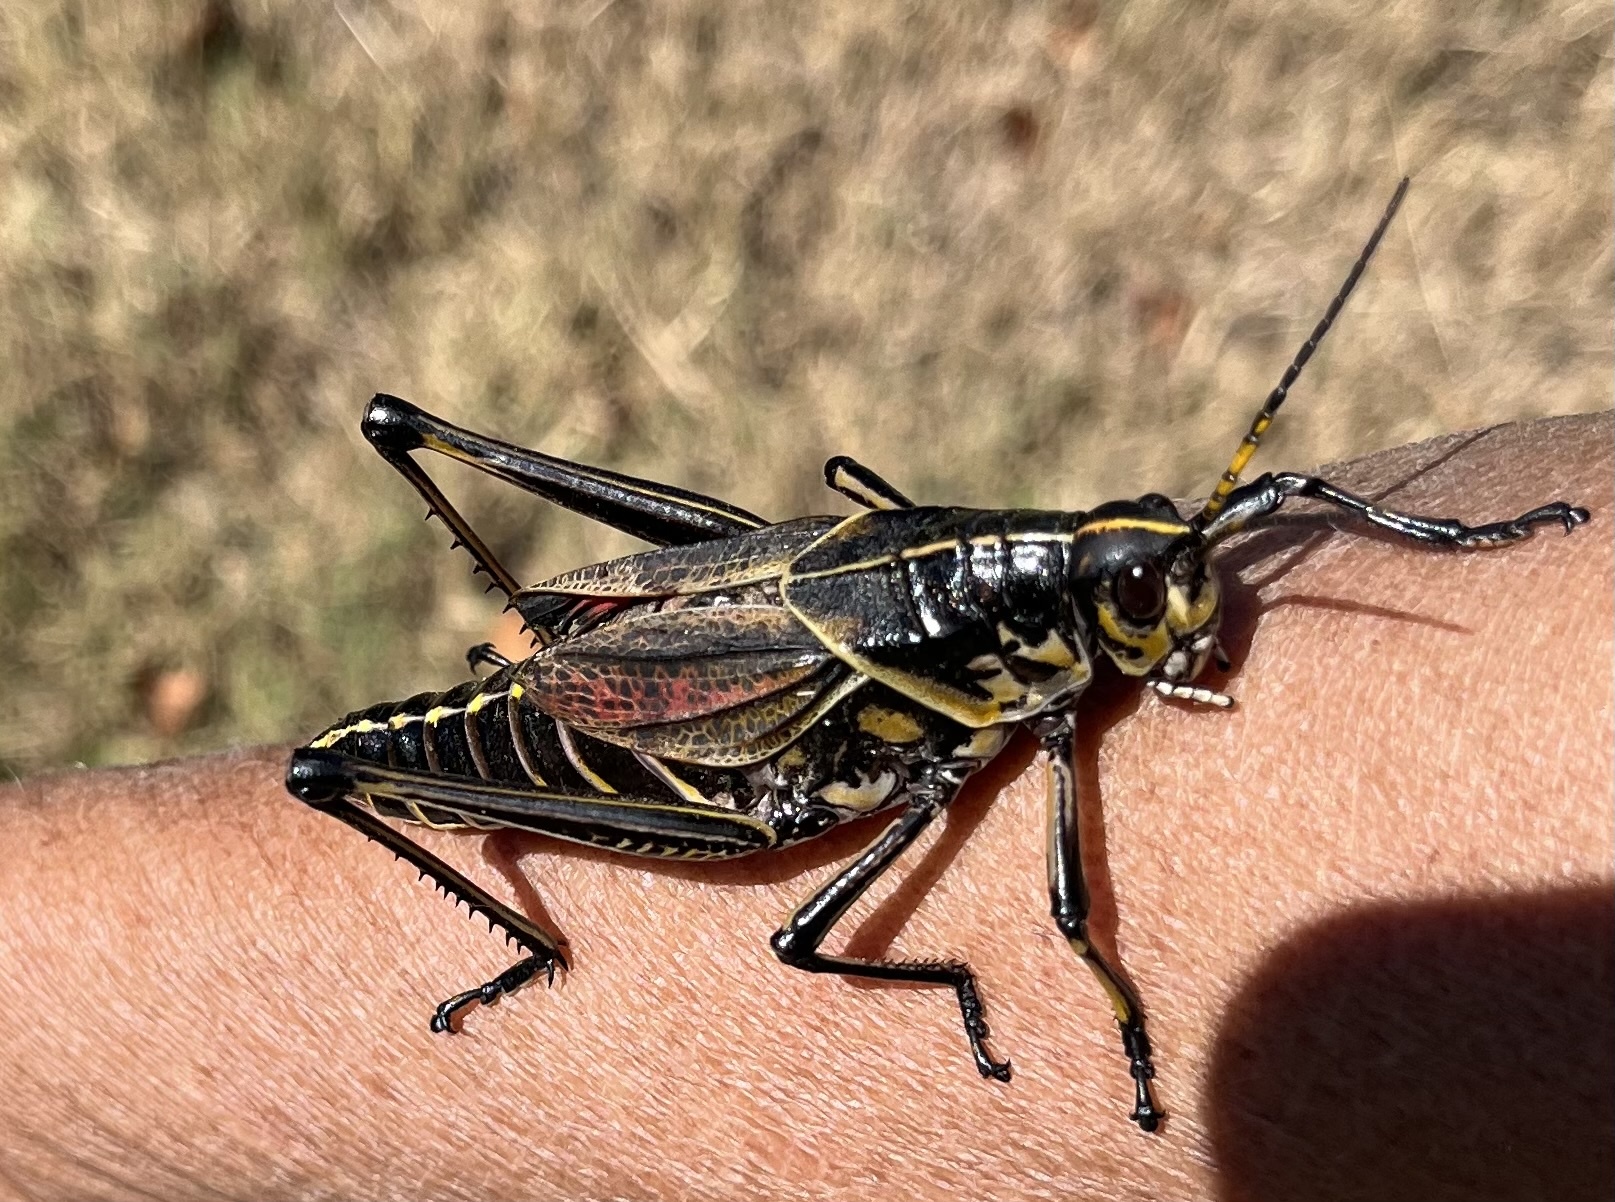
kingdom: Animalia
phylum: Arthropoda
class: Insecta
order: Orthoptera
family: Romaleidae
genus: Romalea
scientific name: Romalea microptera
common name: Eastern lubber grasshopper
